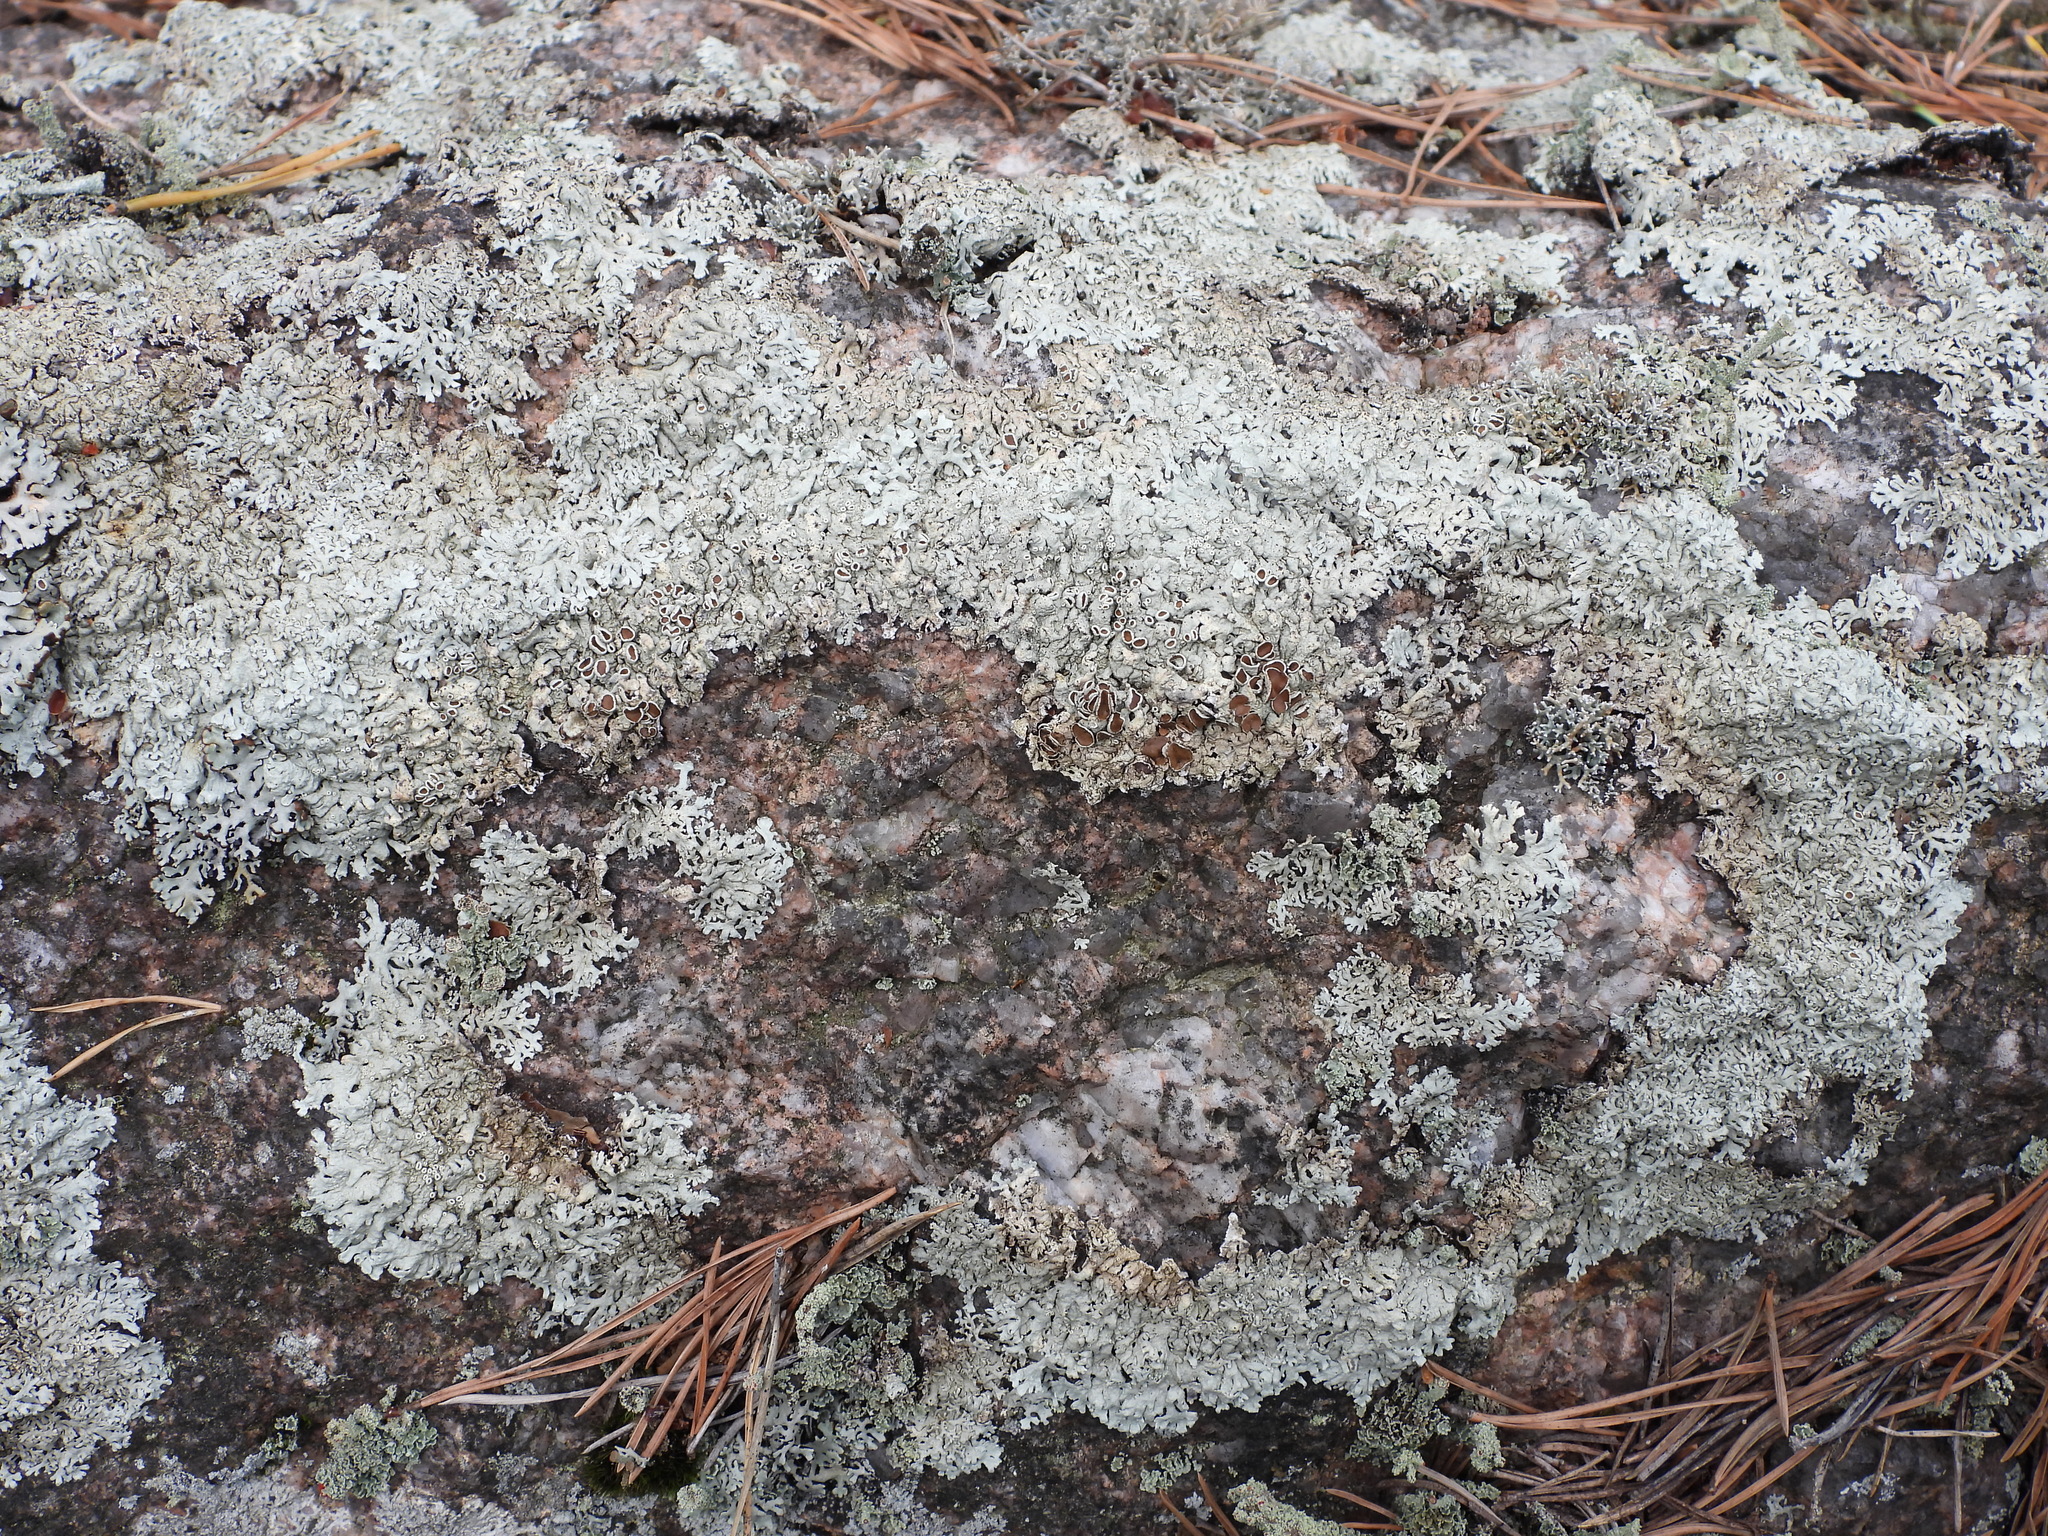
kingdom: Fungi
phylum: Ascomycota
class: Lecanoromycetes
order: Lecanorales
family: Parmeliaceae
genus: Arctoparmelia
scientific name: Arctoparmelia centrifuga
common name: Concentric ring lichen
